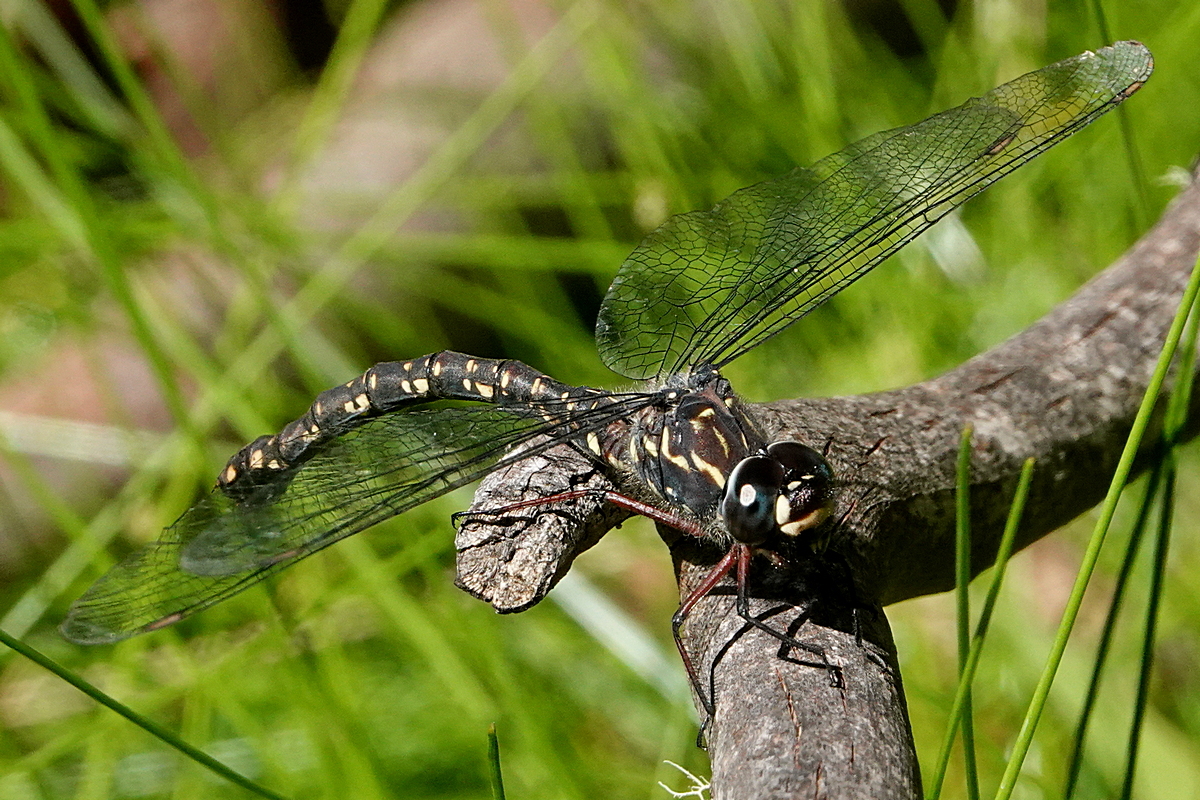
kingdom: Animalia
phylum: Arthropoda
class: Insecta
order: Odonata
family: Aeshnidae
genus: Austroaeschna
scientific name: Austroaeschna multipunctata
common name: Multi-spotted darner
